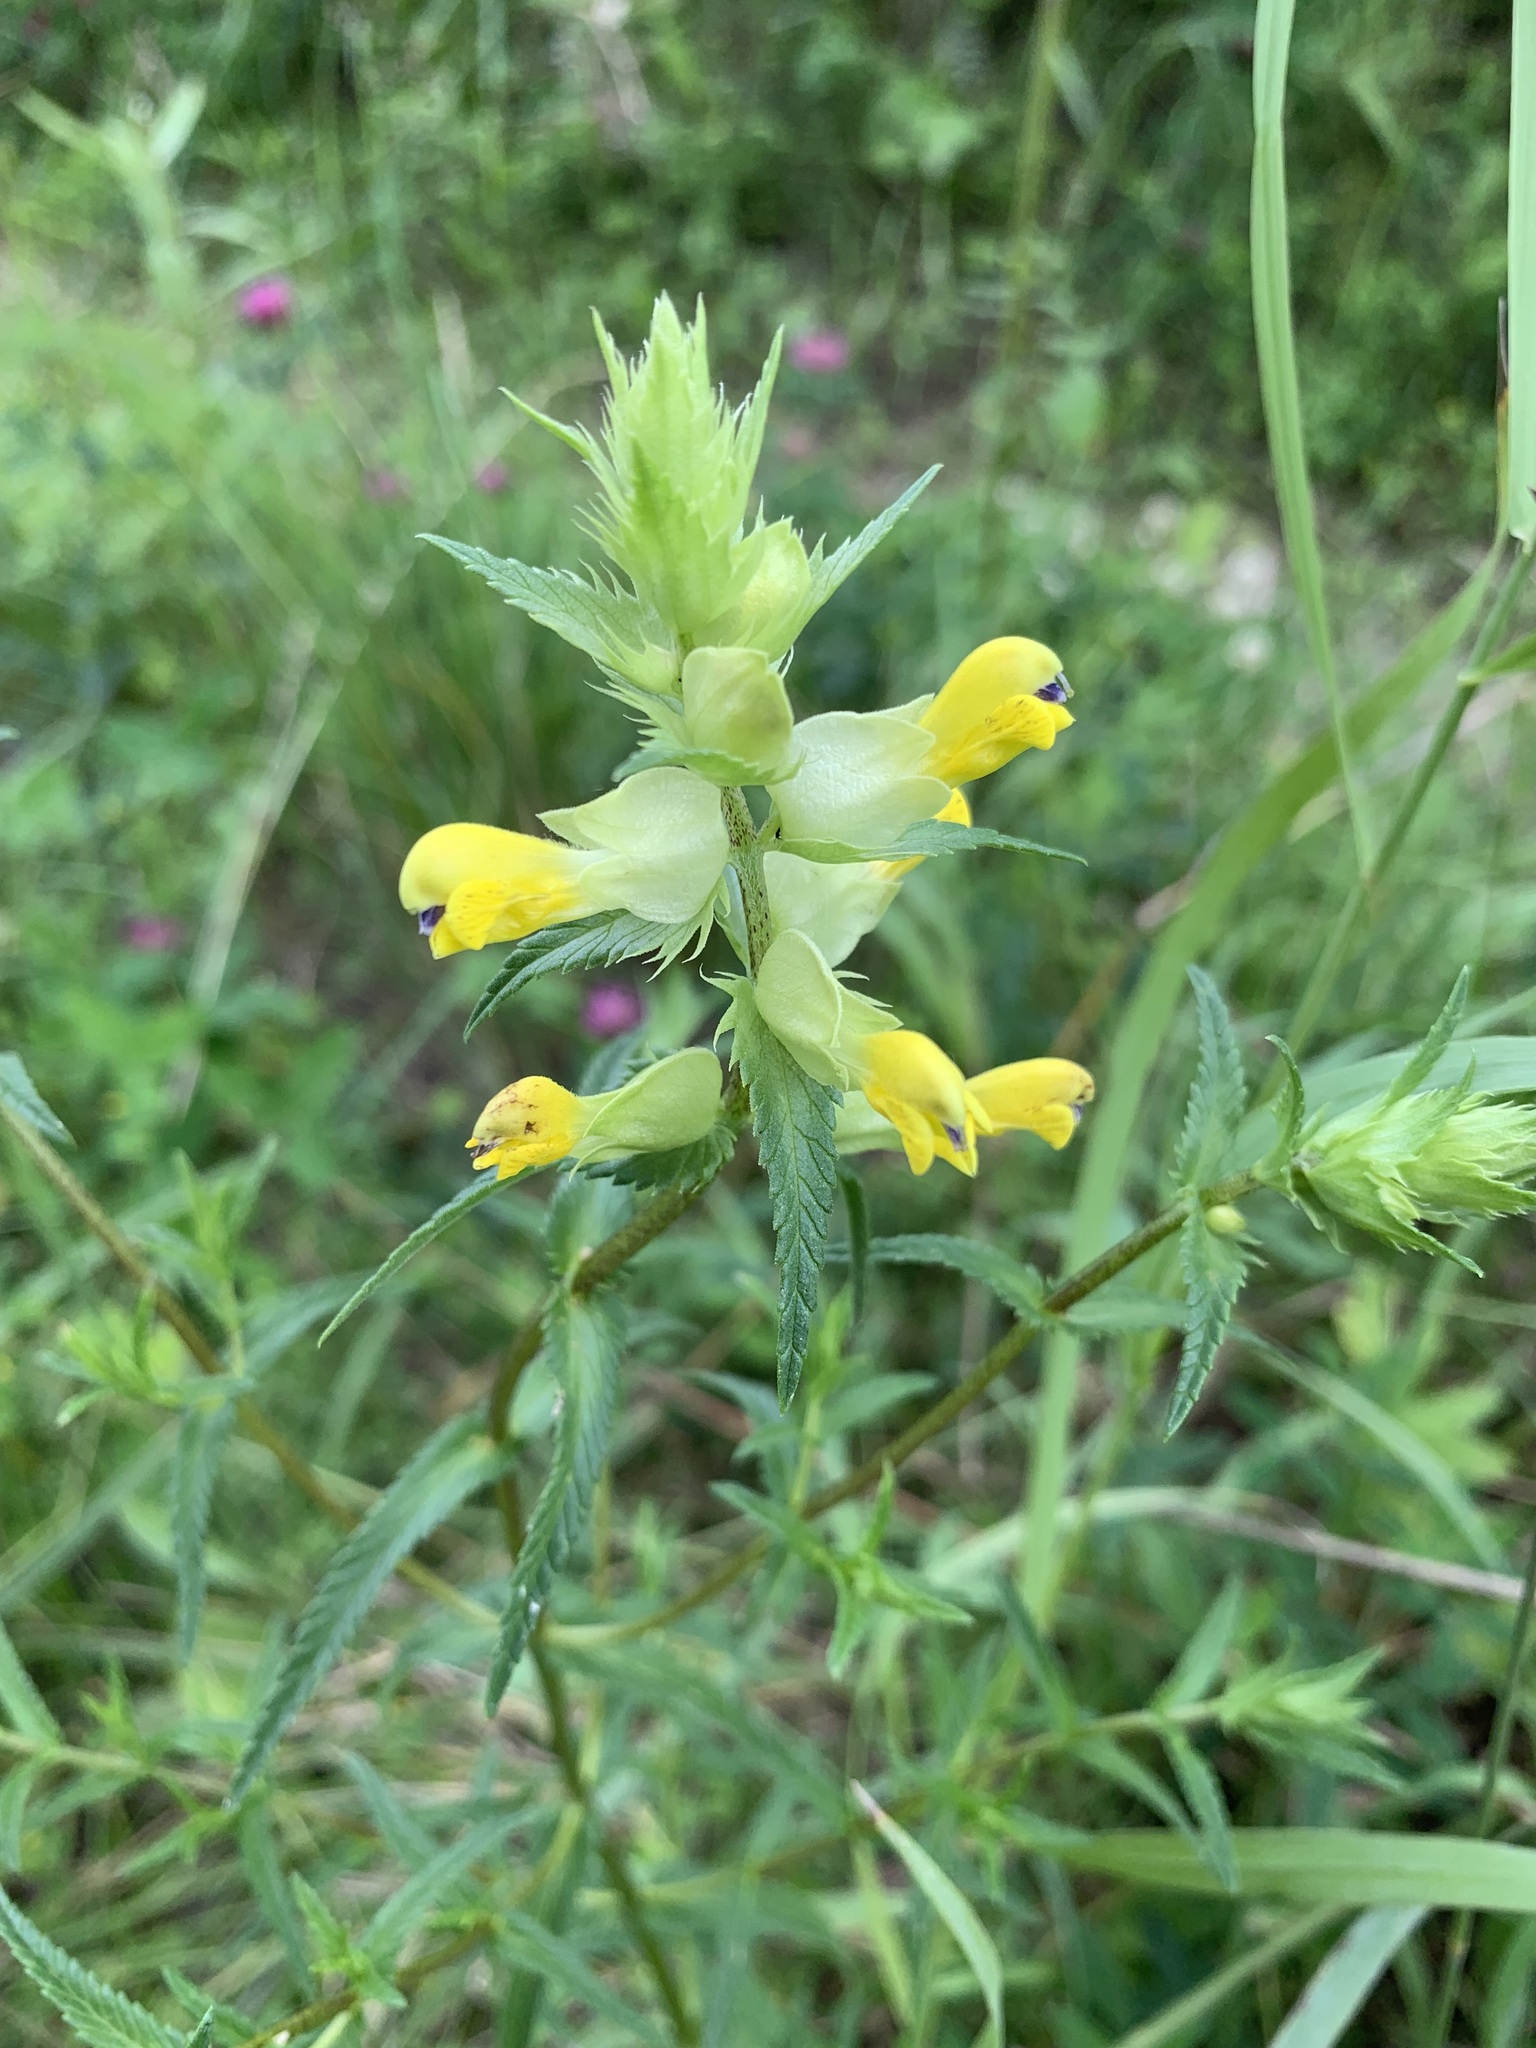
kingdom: Plantae
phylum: Tracheophyta
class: Magnoliopsida
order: Lamiales
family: Orobanchaceae
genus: Rhinanthus
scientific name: Rhinanthus serotinus
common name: Late-flowering yellow rattle
